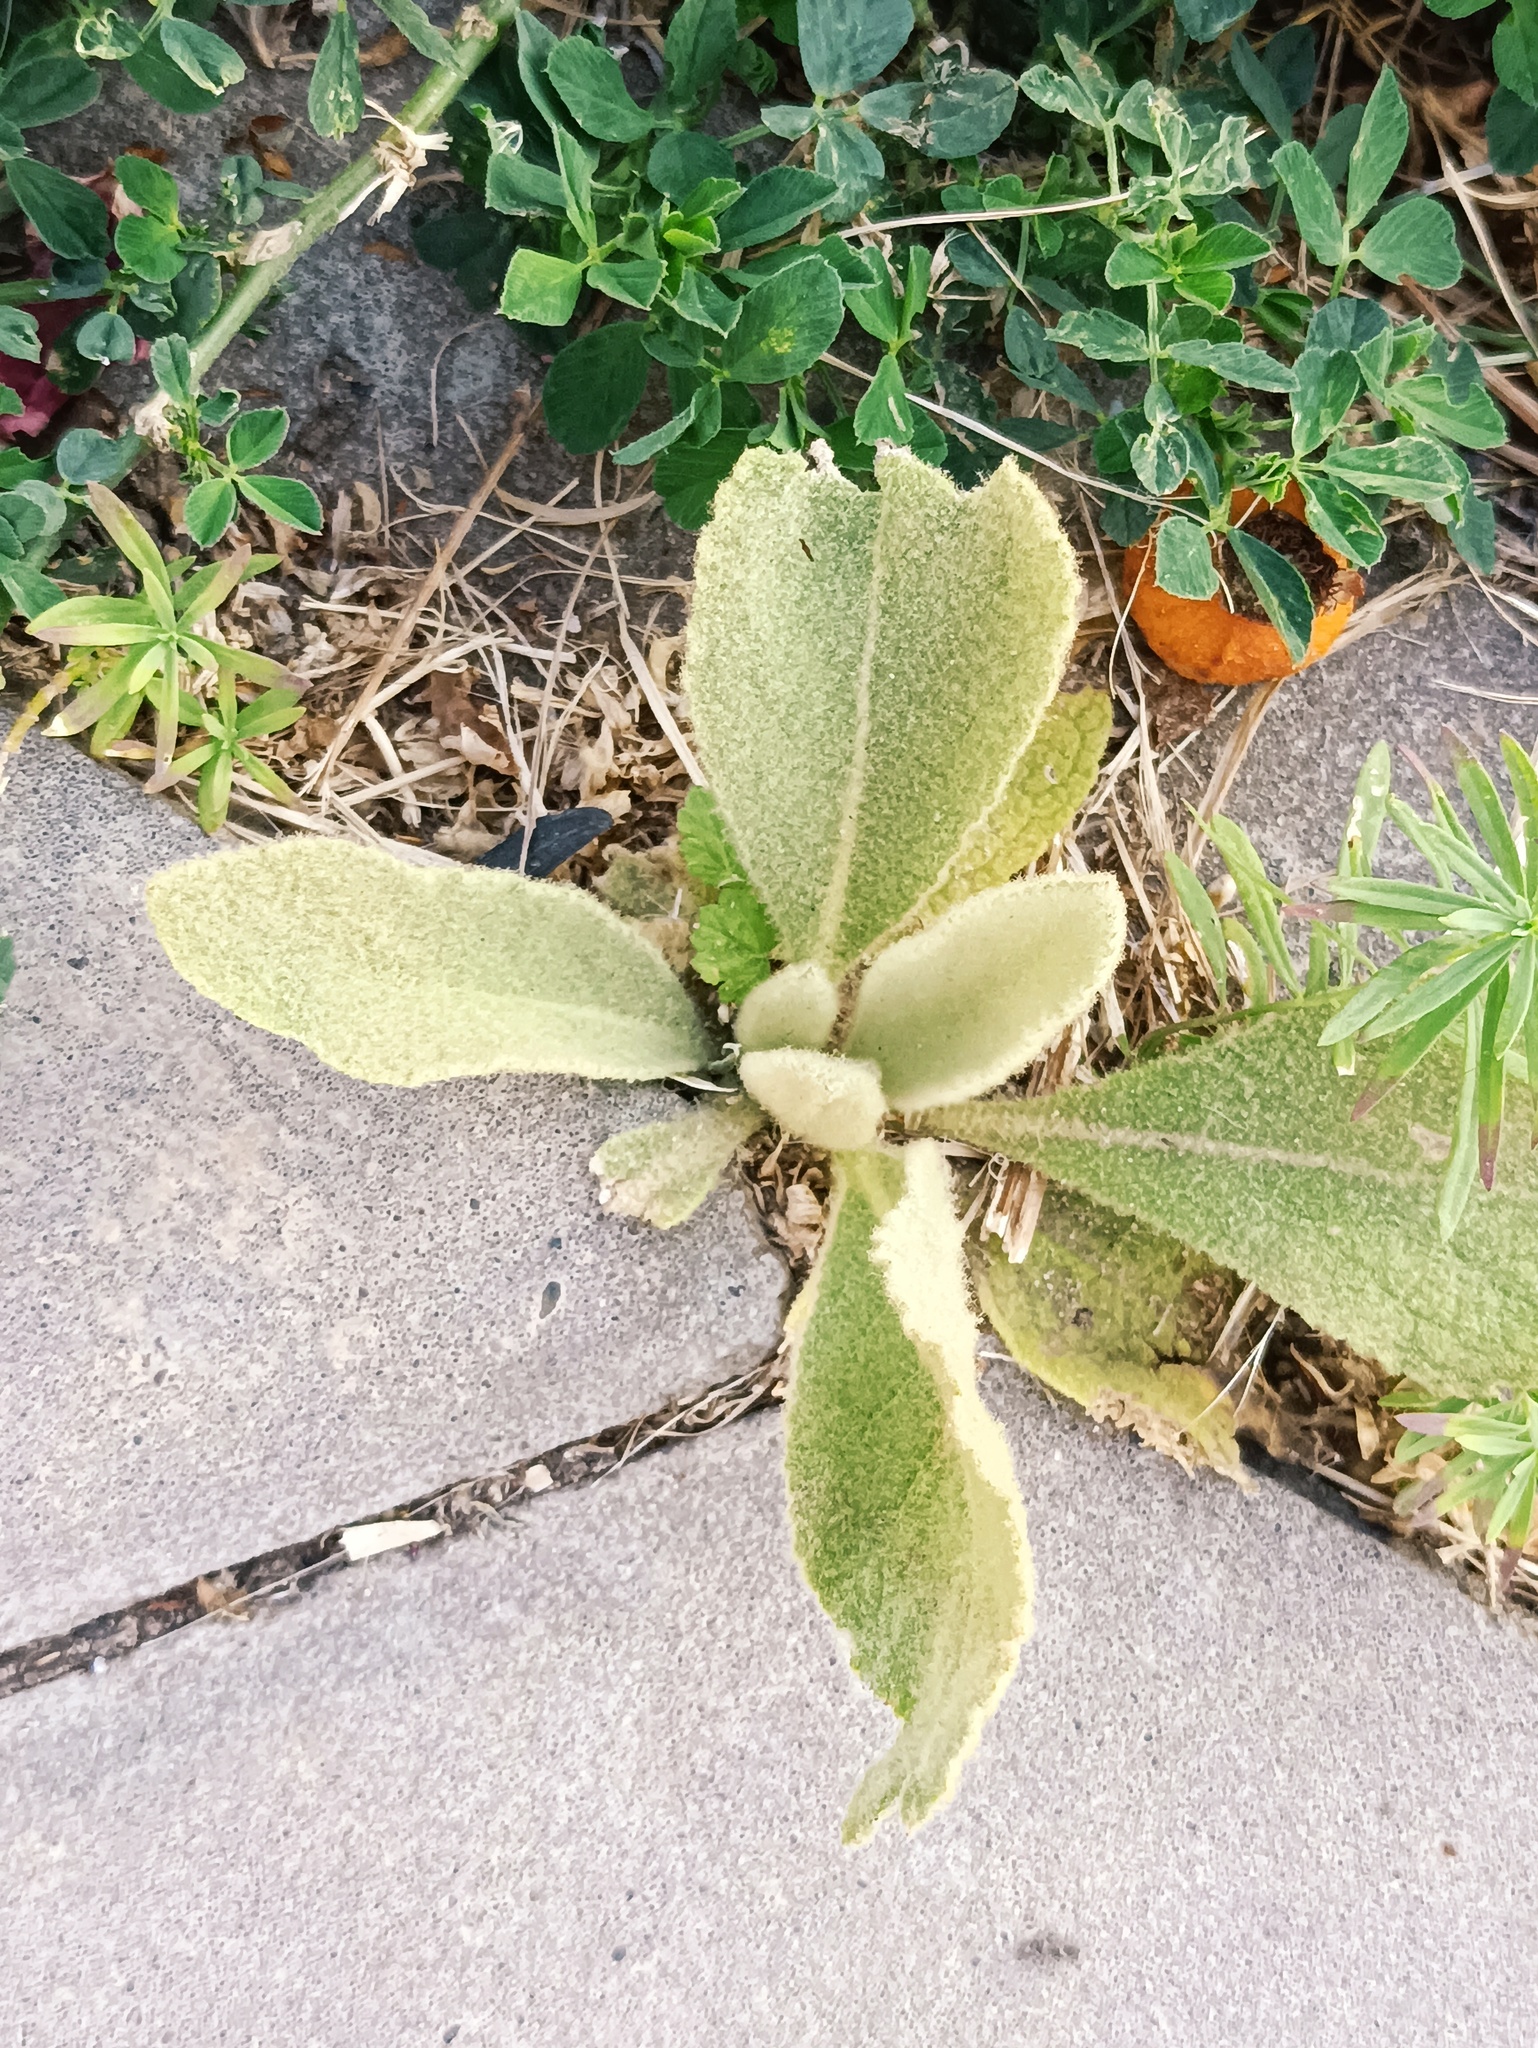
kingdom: Plantae
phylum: Tracheophyta
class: Magnoliopsida
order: Lamiales
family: Scrophulariaceae
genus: Verbascum
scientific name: Verbascum thapsus
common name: Common mullein
